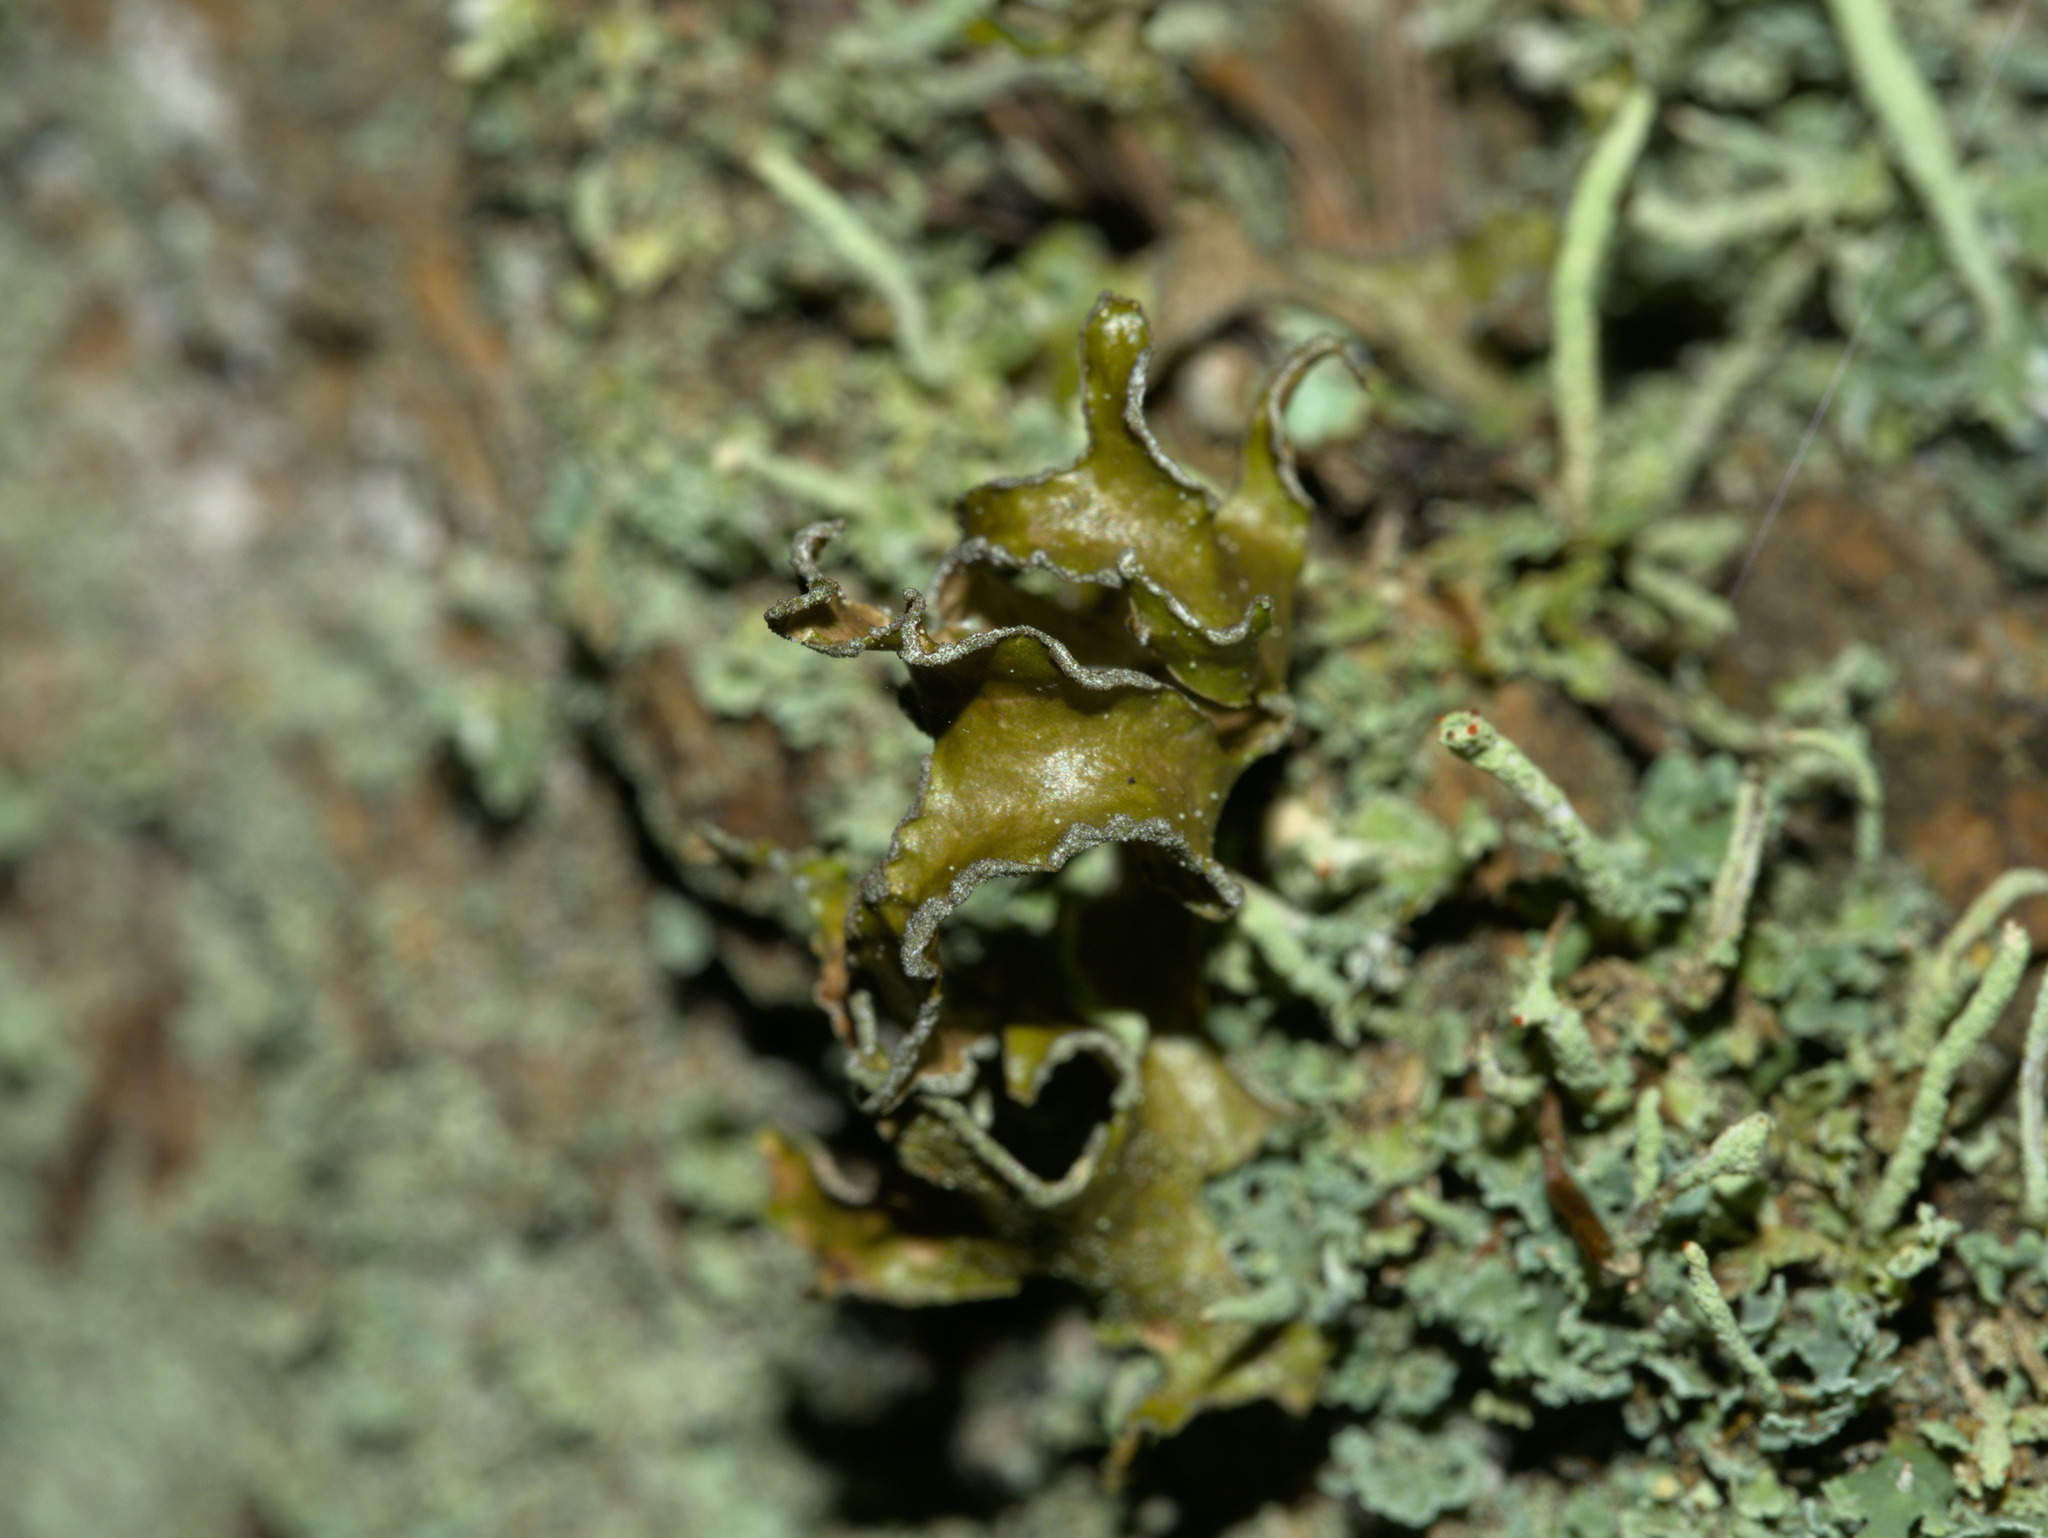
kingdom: Fungi
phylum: Ascomycota
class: Lecanoromycetes
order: Lecanorales
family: Parmeliaceae
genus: Nephromopsis
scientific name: Nephromopsis chlorophylla
